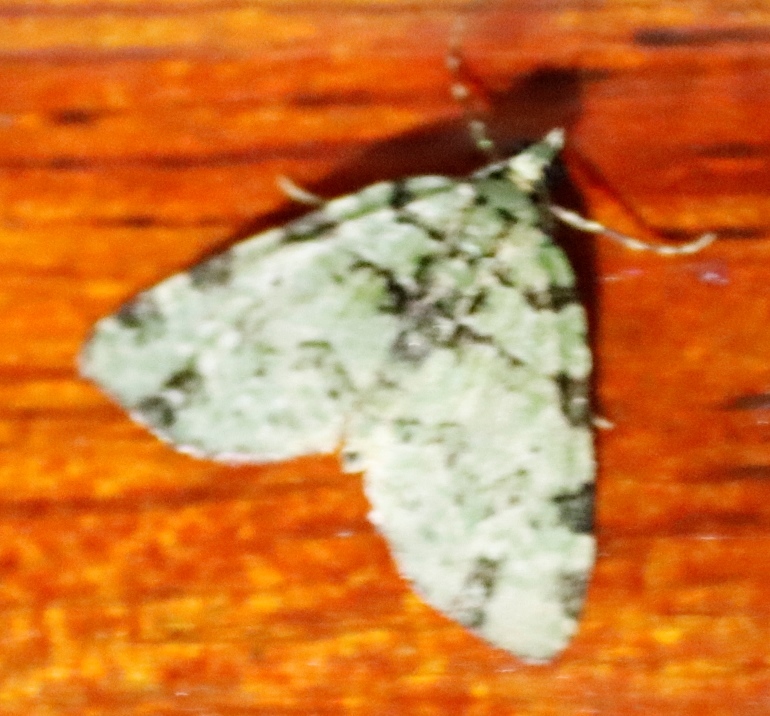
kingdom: Animalia
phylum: Arthropoda
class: Insecta
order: Lepidoptera
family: Geometridae
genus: Piercia
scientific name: Piercia bryophilaria
